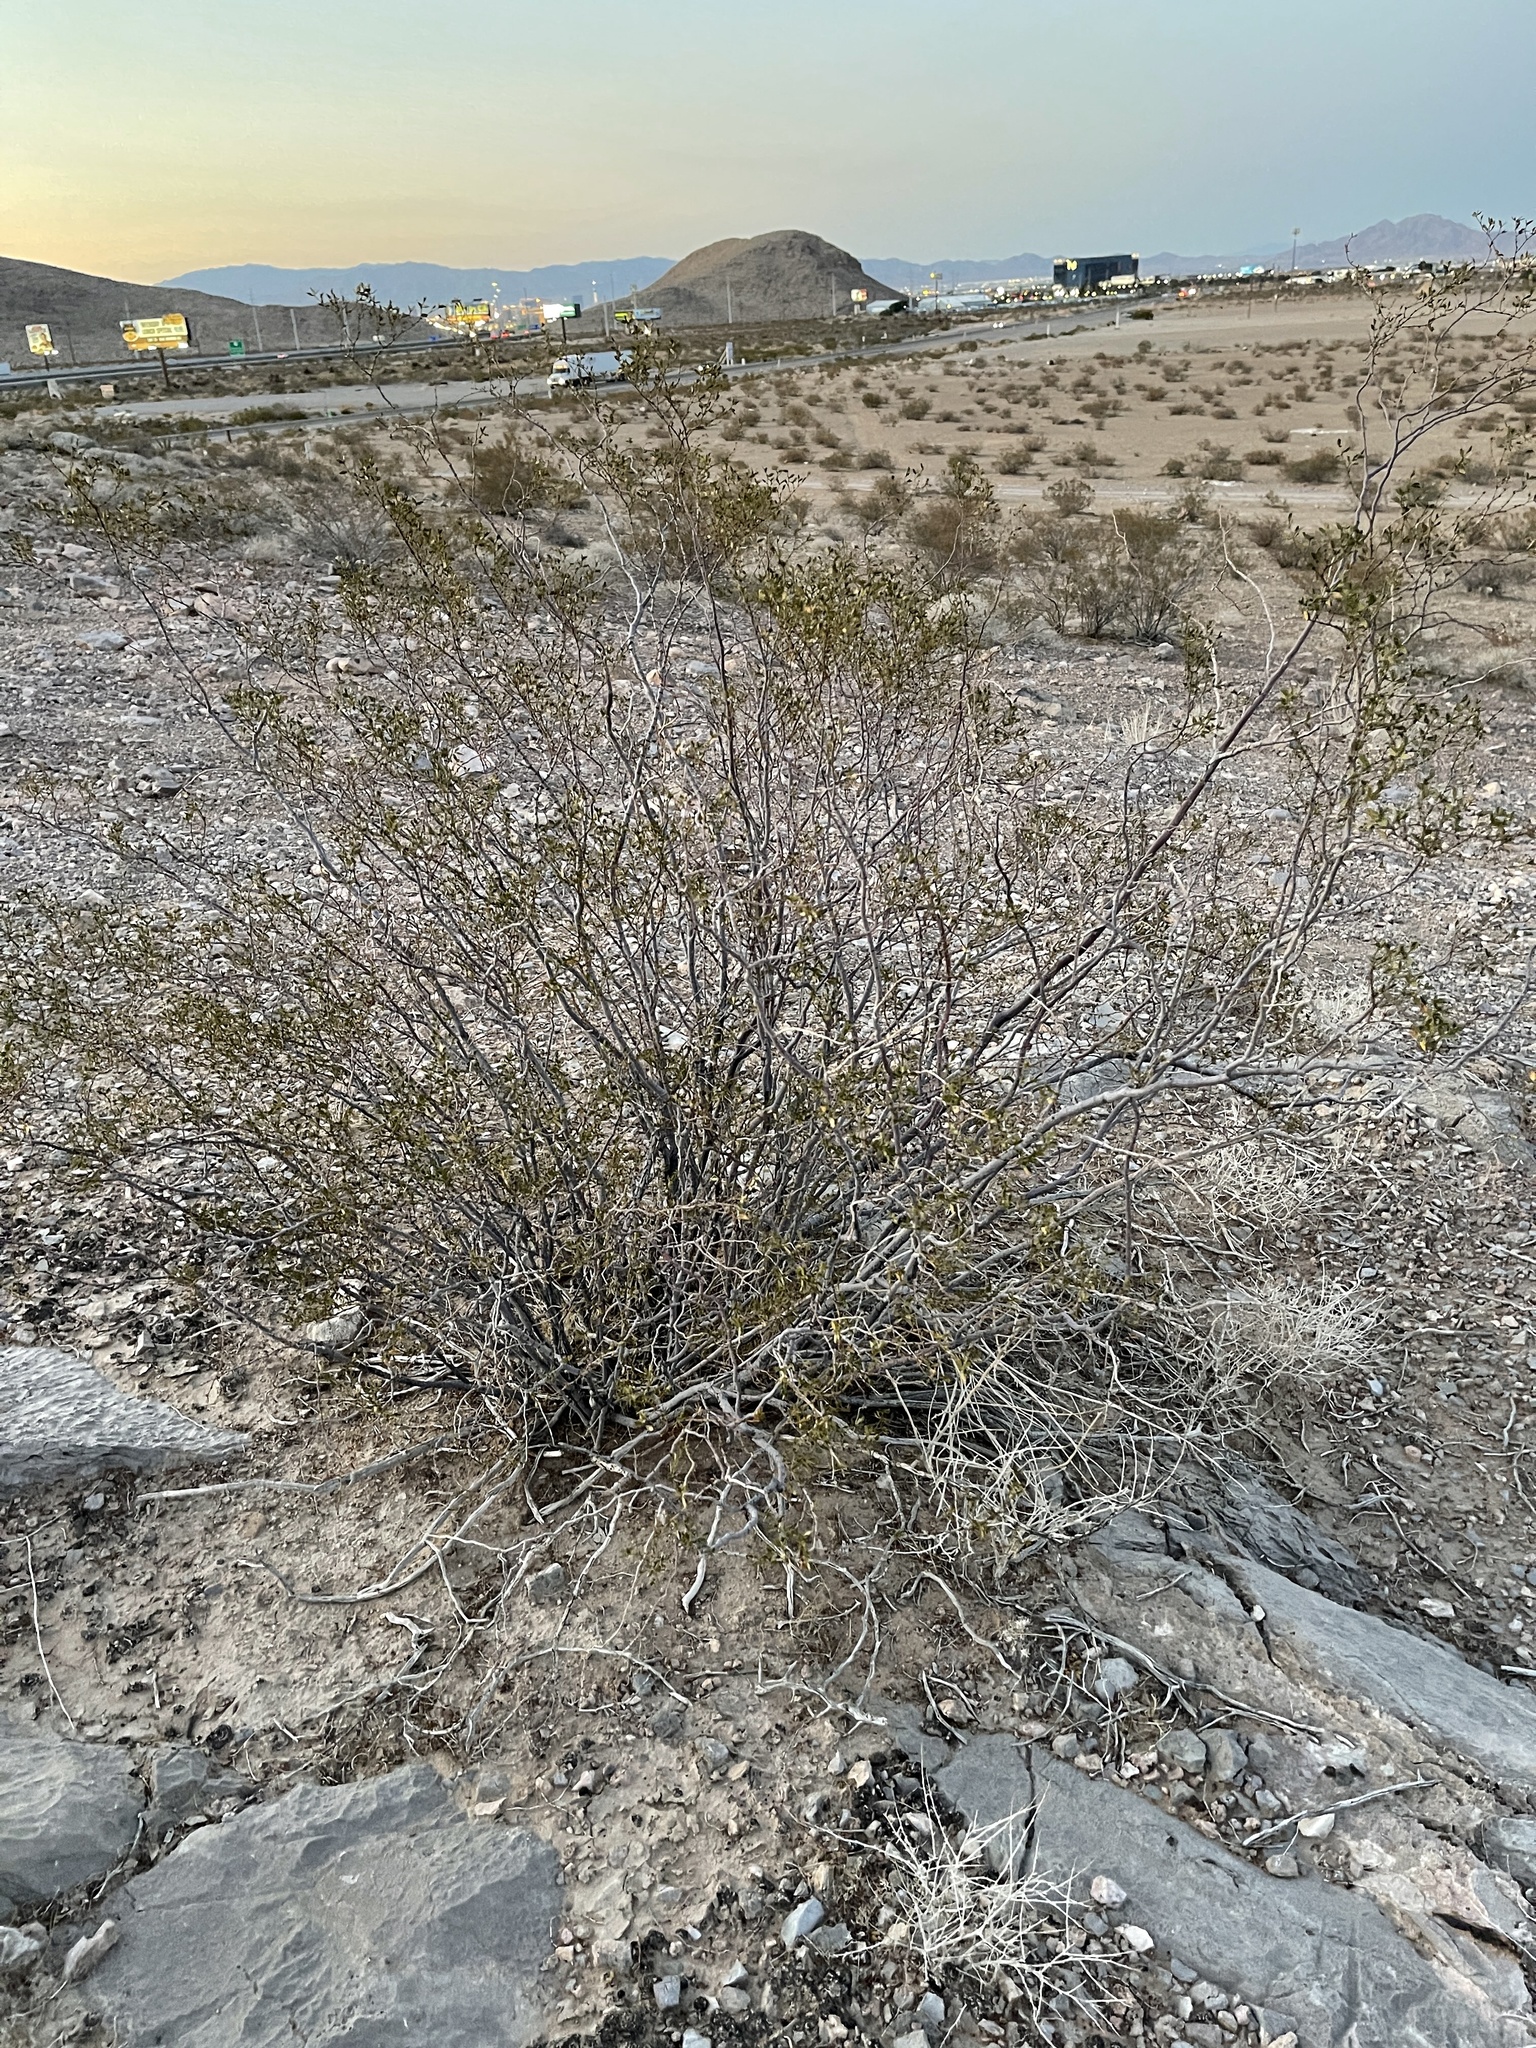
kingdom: Plantae
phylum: Tracheophyta
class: Magnoliopsida
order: Zygophyllales
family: Zygophyllaceae
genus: Larrea
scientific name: Larrea tridentata
